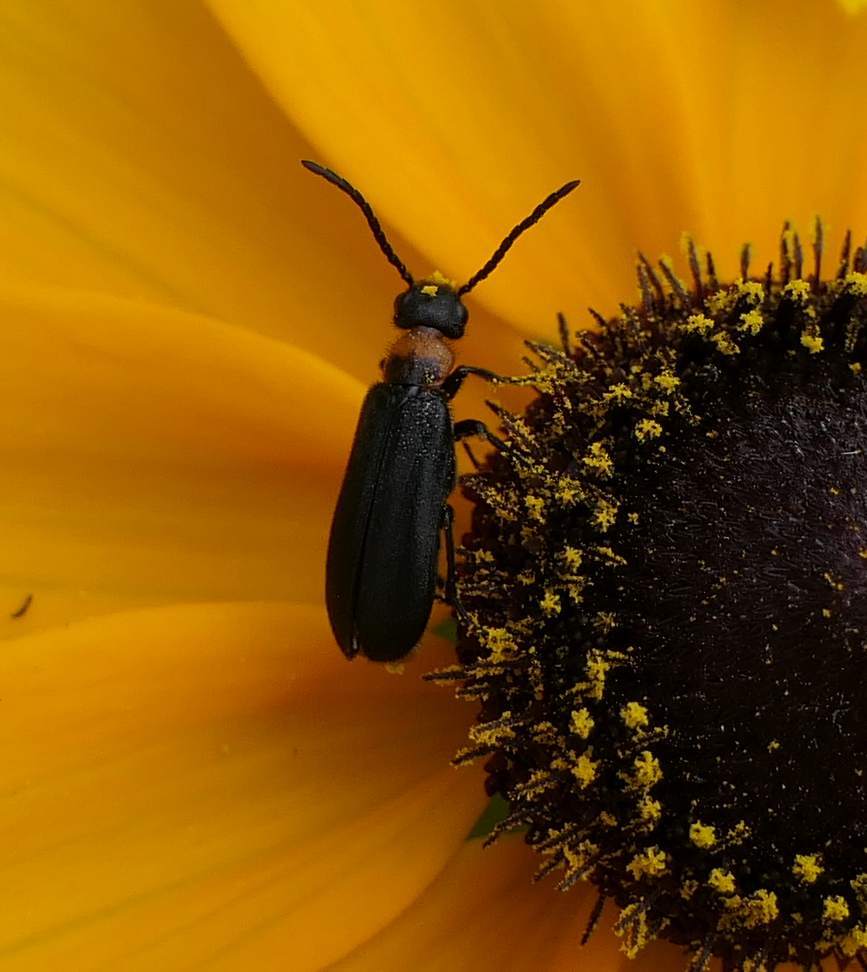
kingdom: Animalia
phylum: Arthropoda
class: Insecta
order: Coleoptera
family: Meloidae
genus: Nemognatha
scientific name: Nemognatha nemorensis
